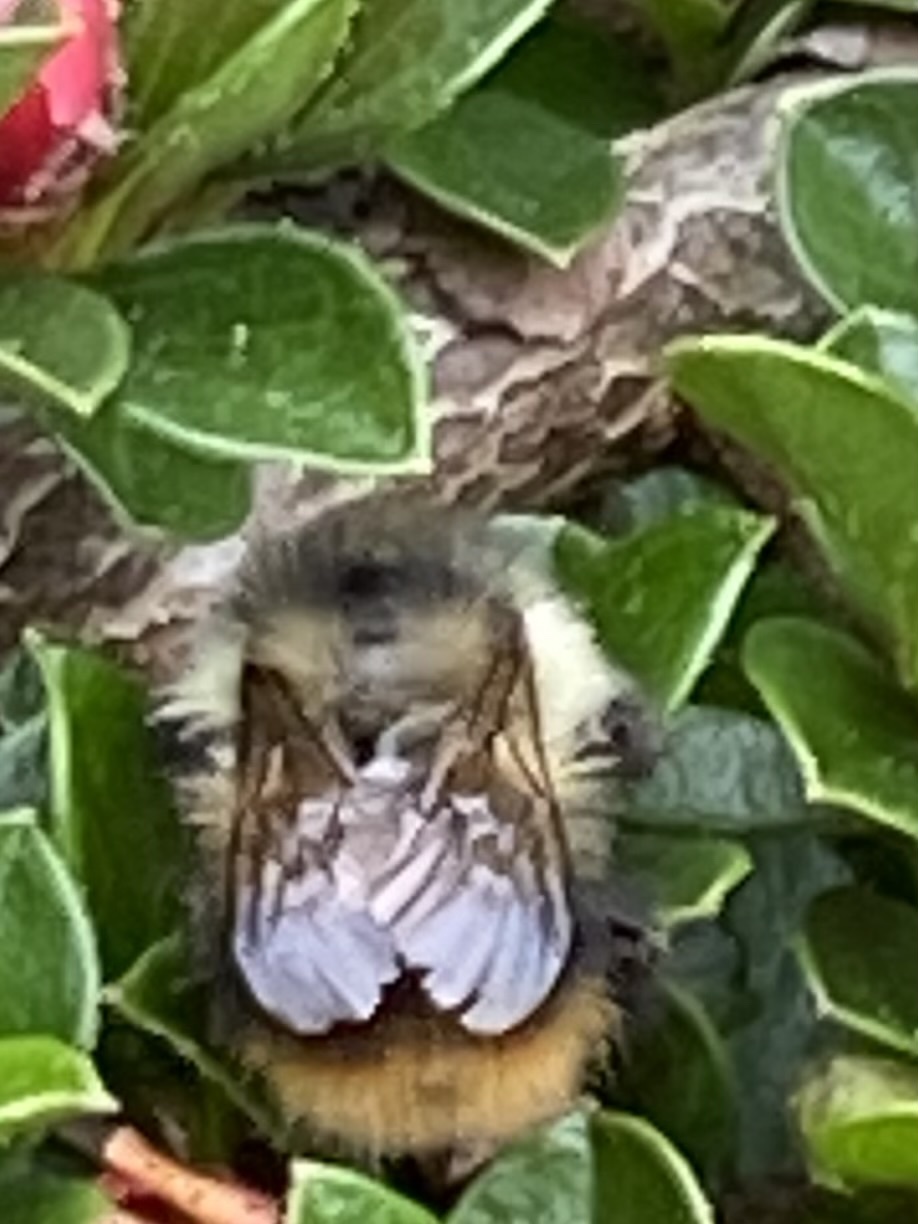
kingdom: Animalia
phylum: Arthropoda
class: Insecta
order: Hymenoptera
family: Apidae
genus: Bombus
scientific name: Bombus mixtus
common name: Fuzzy-horned bumble bee
